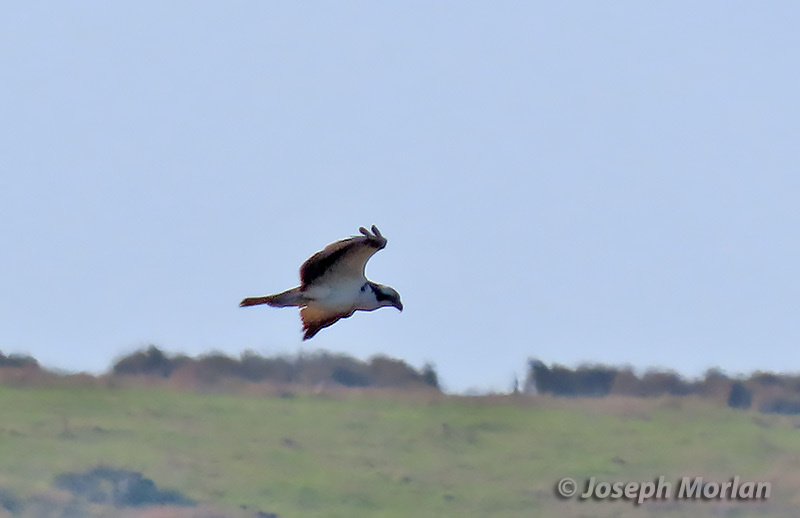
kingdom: Animalia
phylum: Chordata
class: Aves
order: Accipitriformes
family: Pandionidae
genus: Pandion
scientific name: Pandion haliaetus
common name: Osprey
